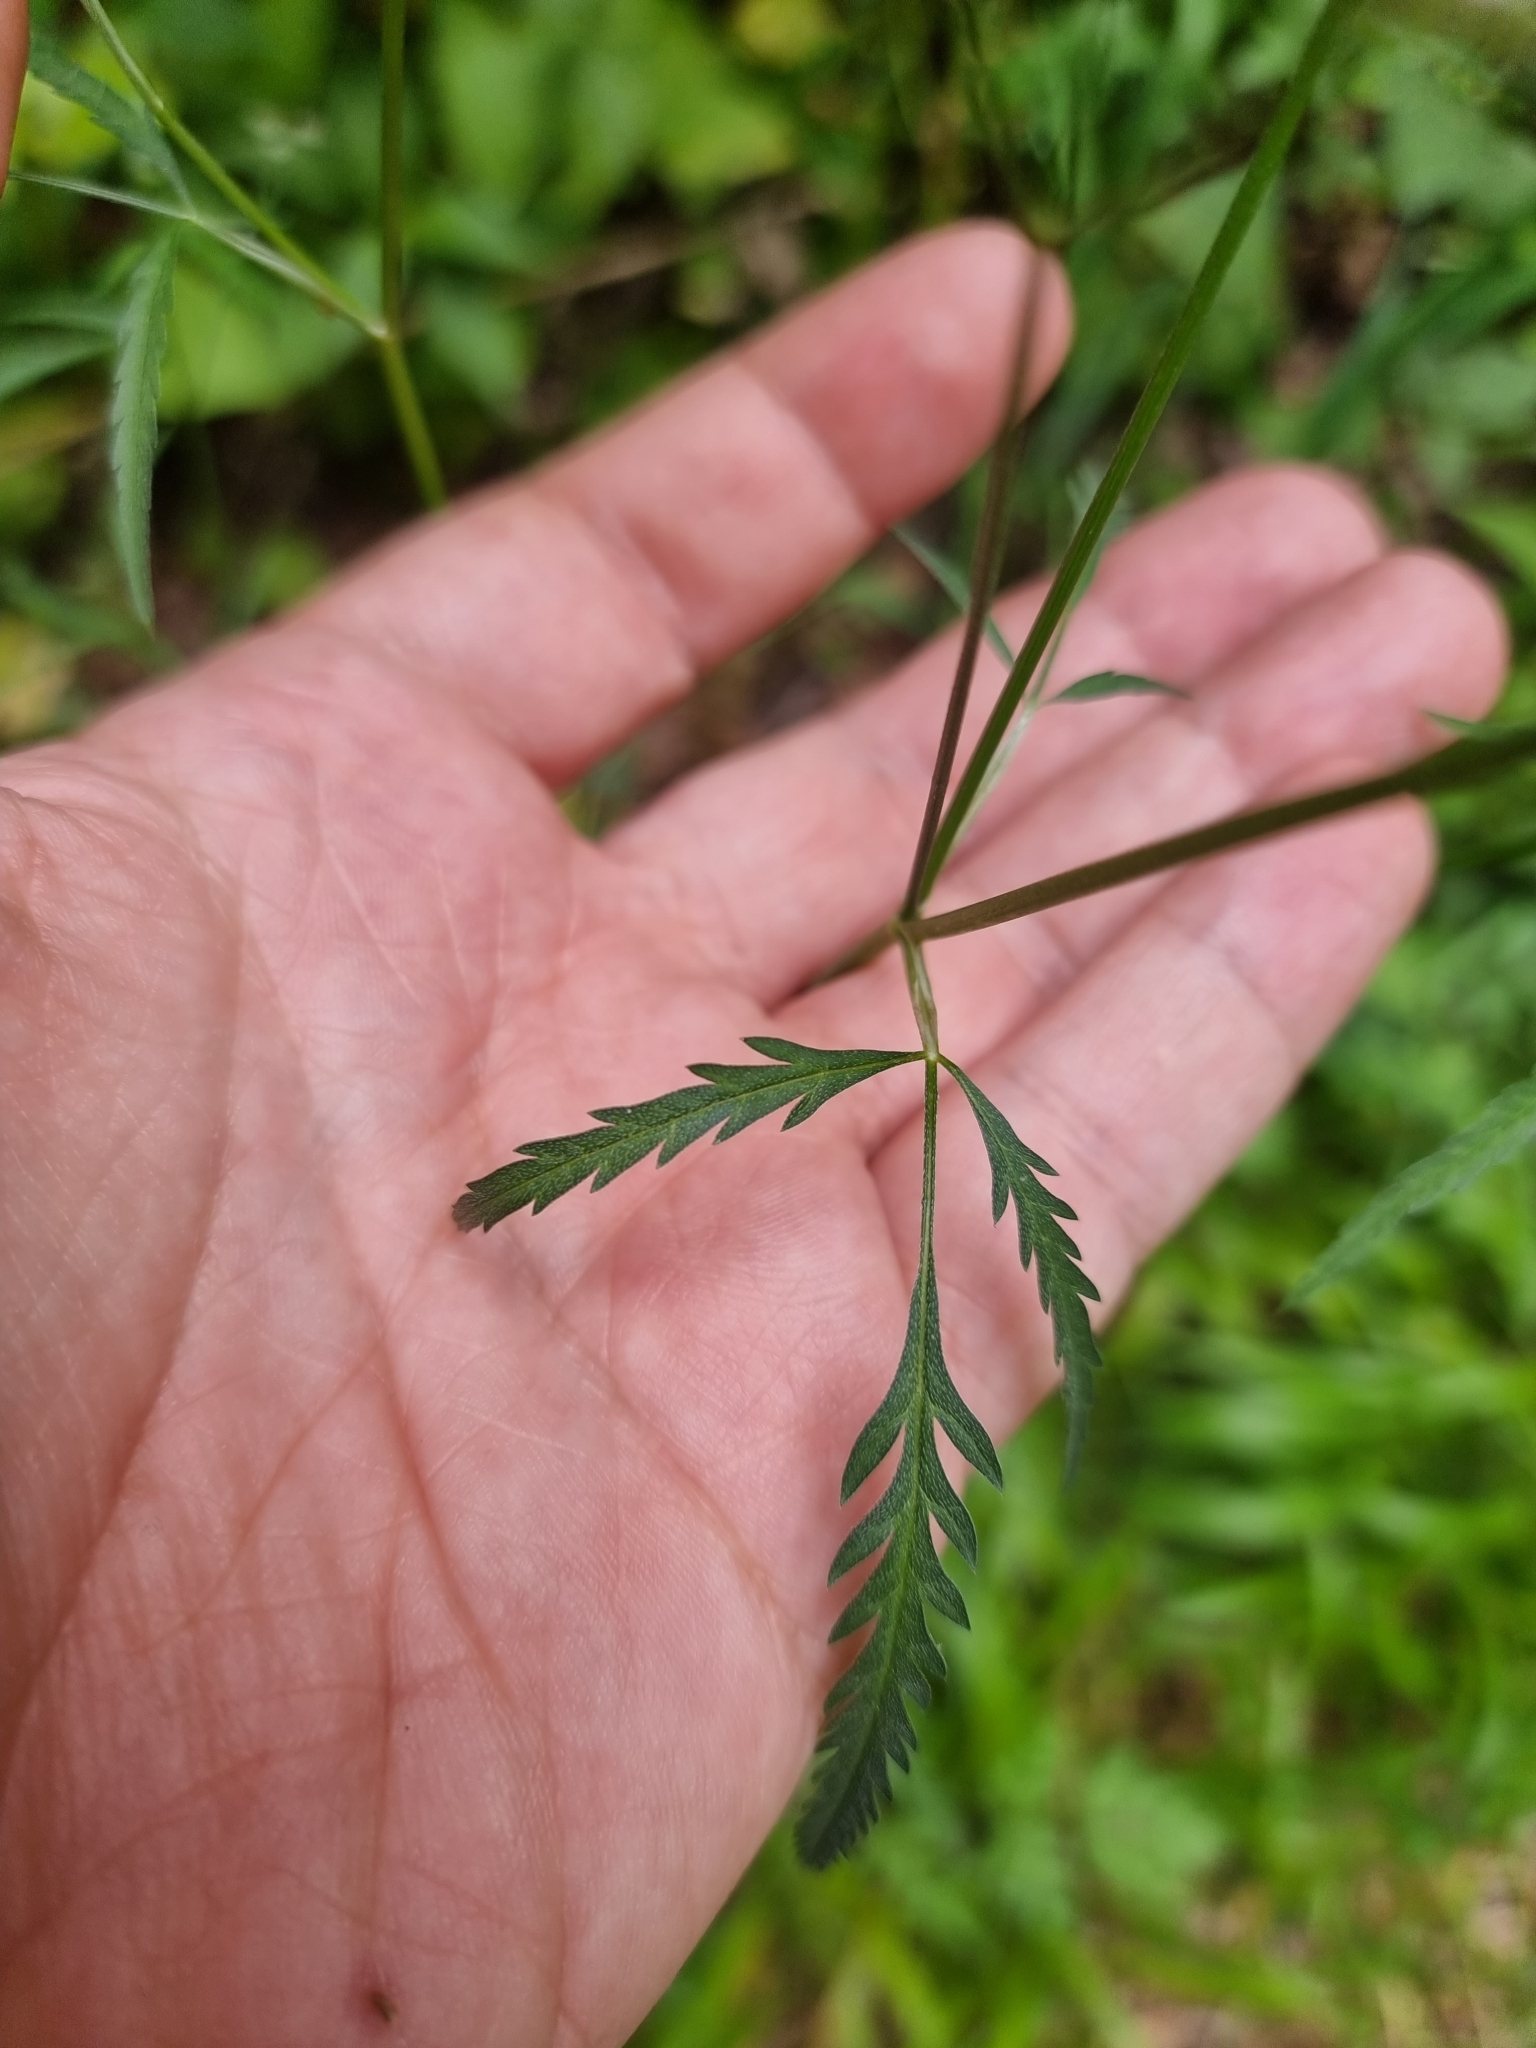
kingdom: Plantae
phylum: Tracheophyta
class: Magnoliopsida
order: Apiales
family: Apiaceae
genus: Torilis
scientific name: Torilis africana
